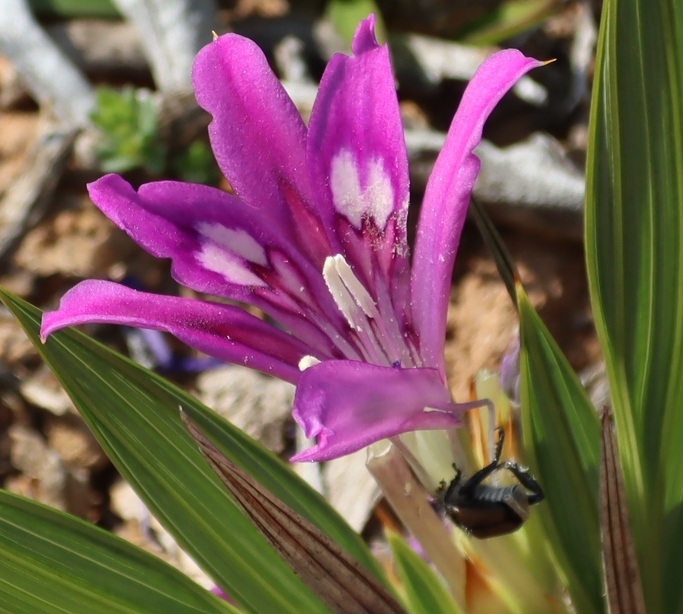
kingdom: Plantae
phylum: Tracheophyta
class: Liliopsida
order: Asparagales
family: Iridaceae
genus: Babiana
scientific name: Babiana dregei
